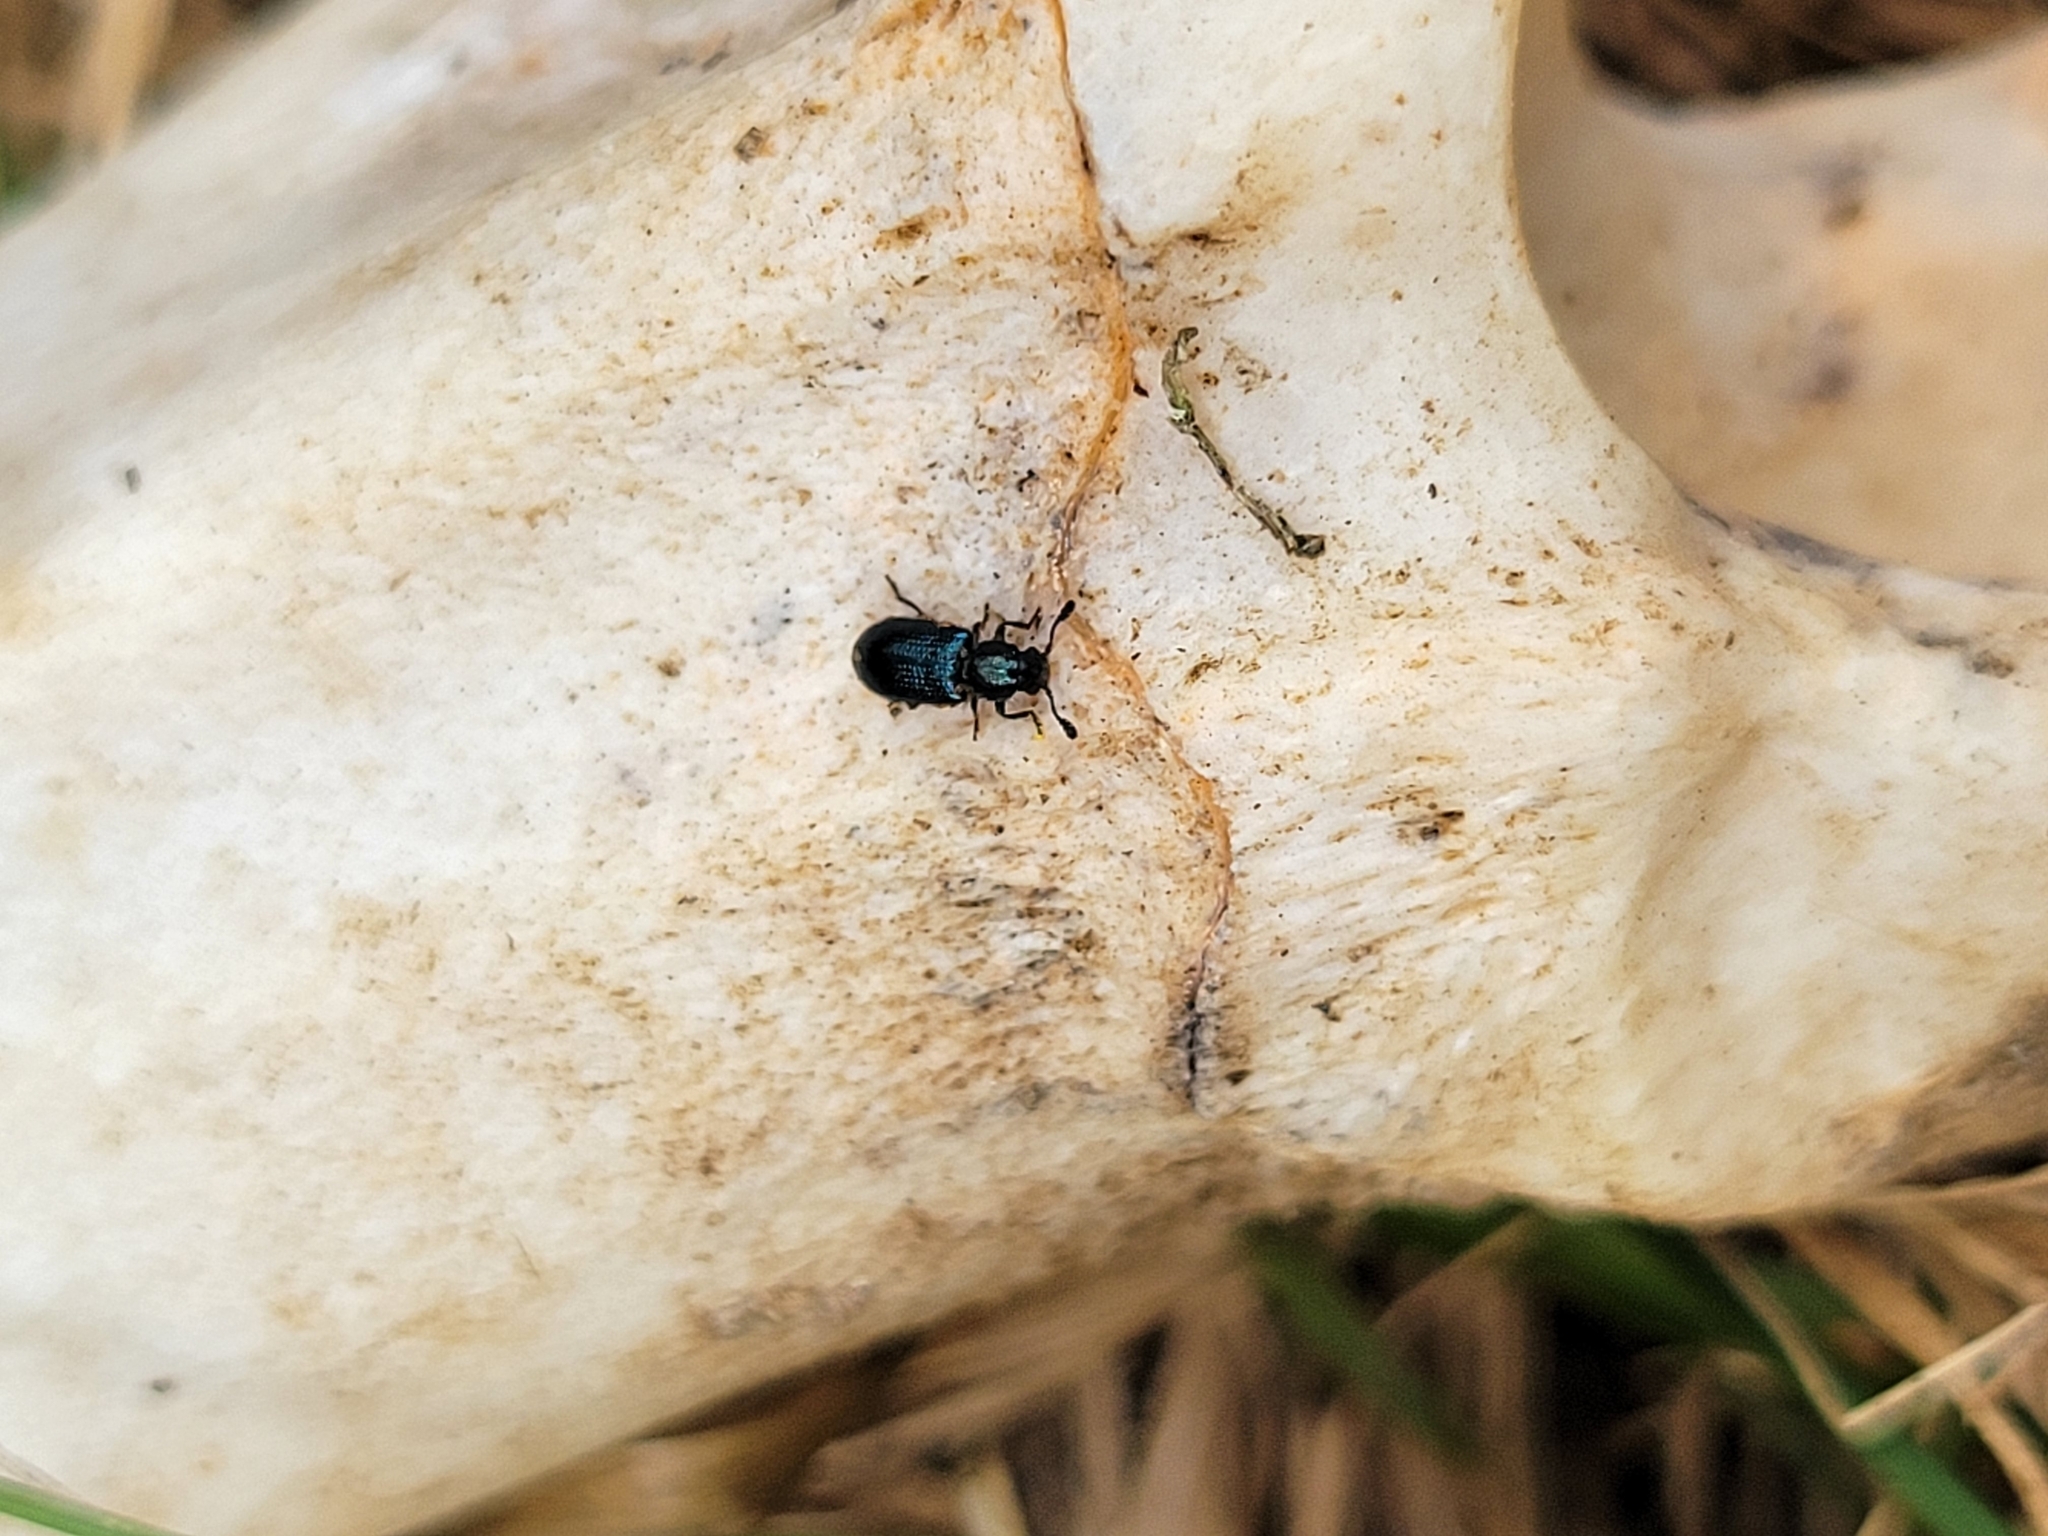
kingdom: Animalia
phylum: Arthropoda
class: Insecta
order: Coleoptera
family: Cleridae
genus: Necrobia
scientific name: Necrobia violacea
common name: Violet checkered beetle
